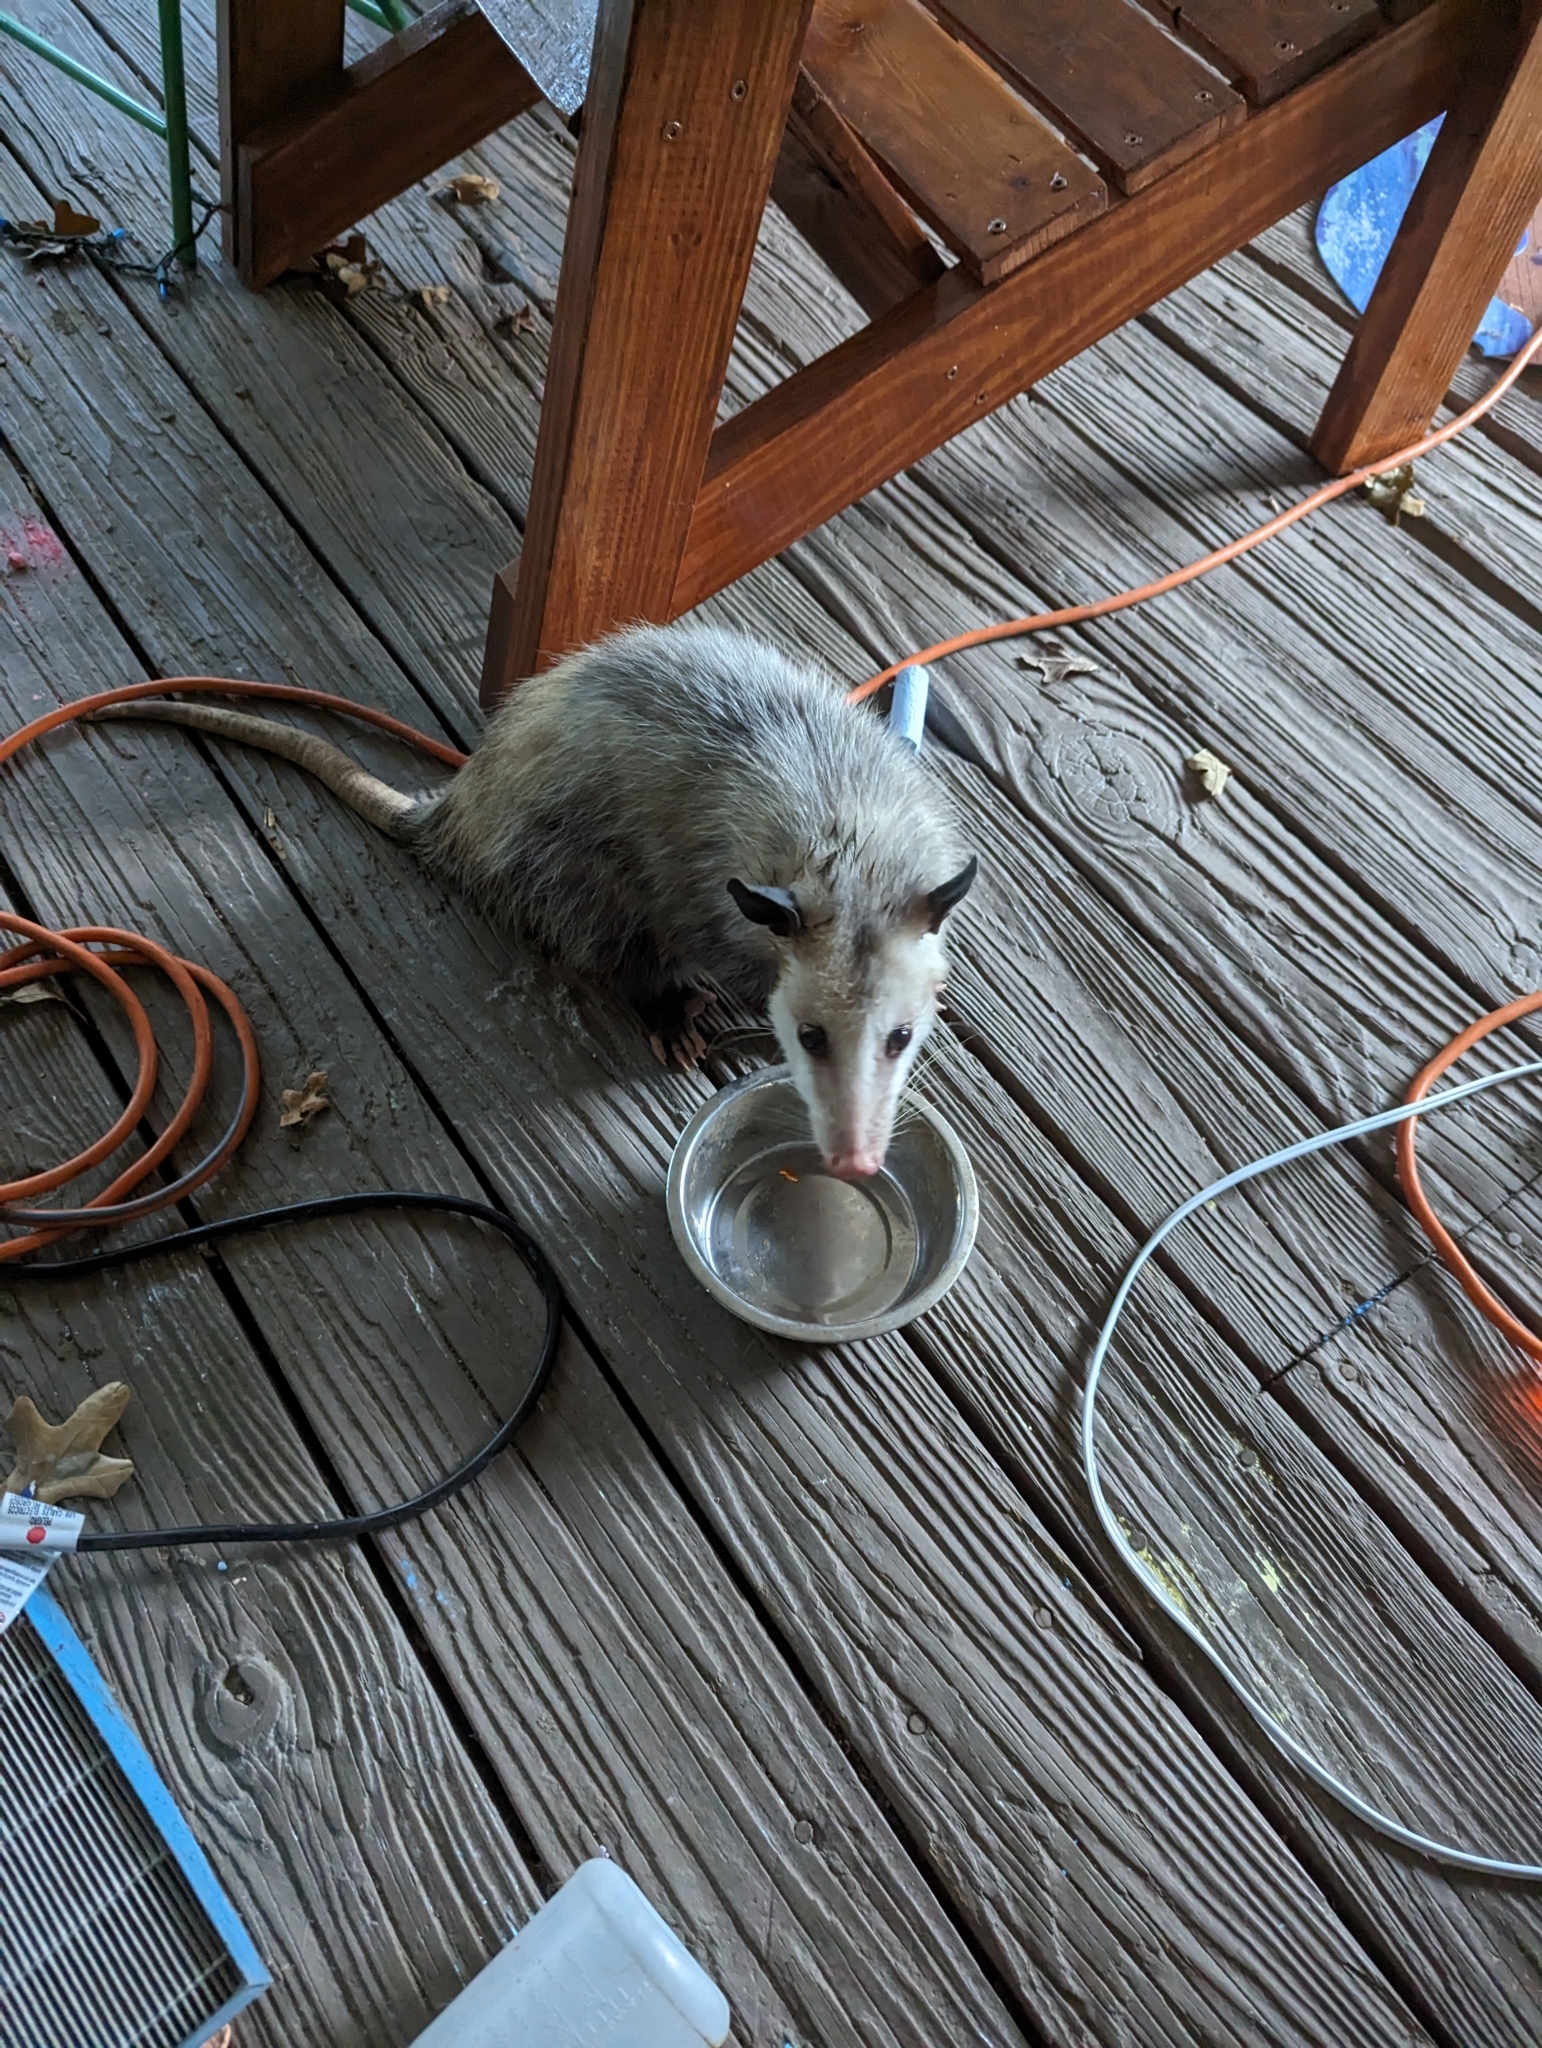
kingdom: Animalia
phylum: Chordata
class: Mammalia
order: Didelphimorphia
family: Didelphidae
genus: Didelphis
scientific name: Didelphis virginiana
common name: Virginia opossum
